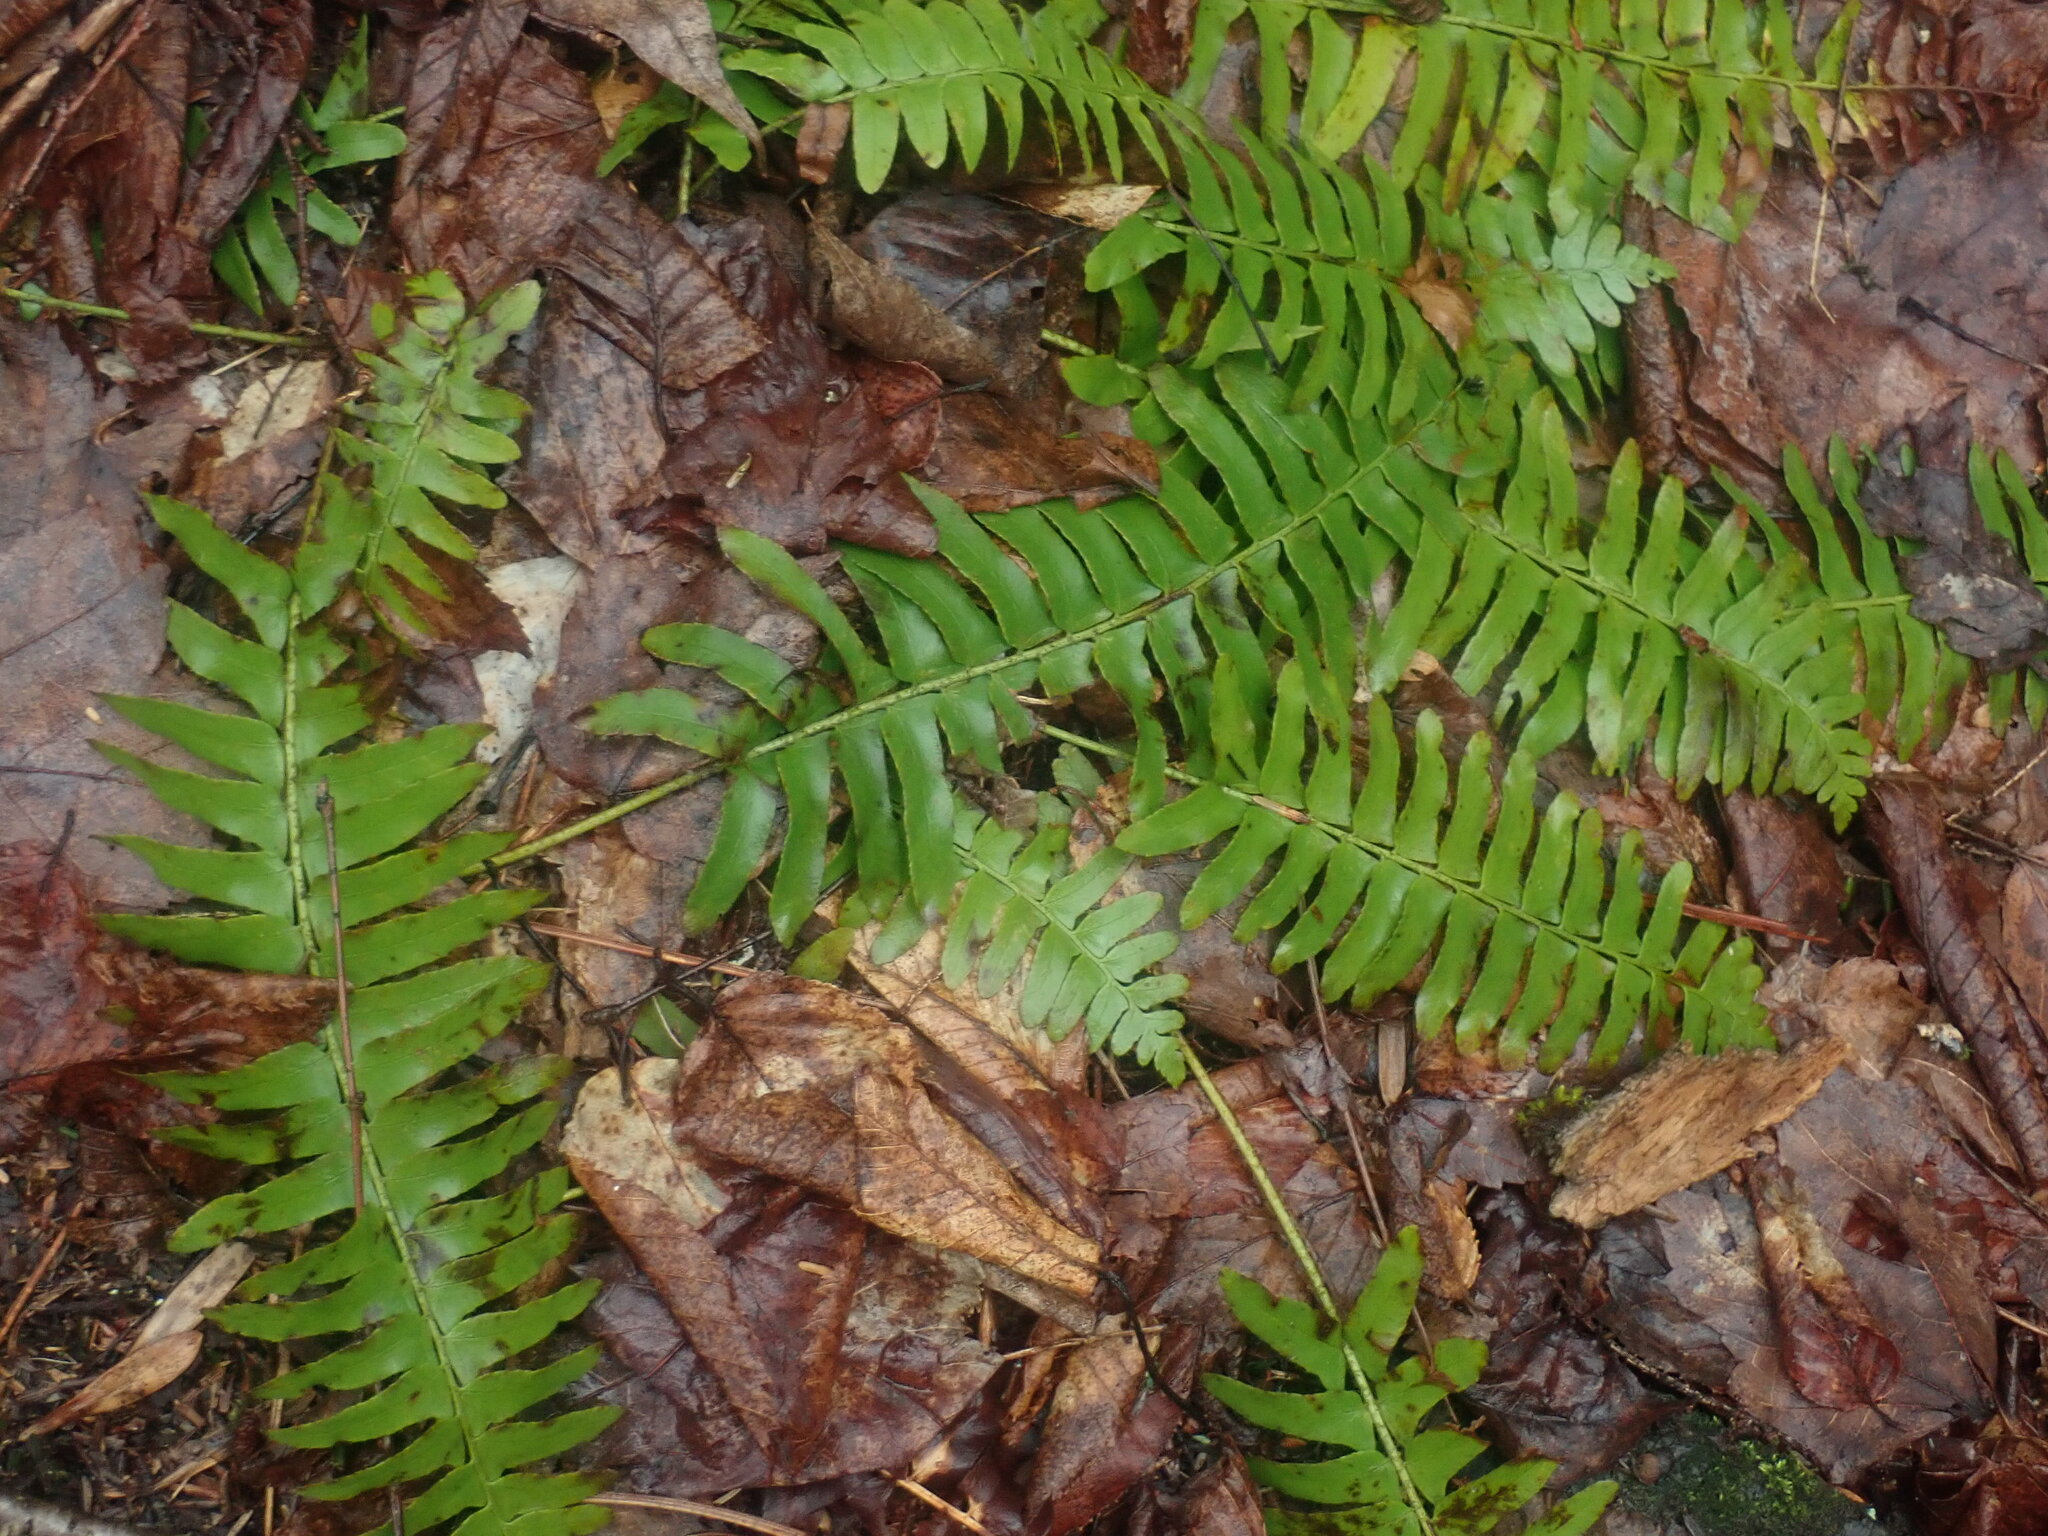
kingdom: Plantae
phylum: Tracheophyta
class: Polypodiopsida
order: Polypodiales
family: Dryopteridaceae
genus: Polystichum
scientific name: Polystichum acrostichoides
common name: Christmas fern
